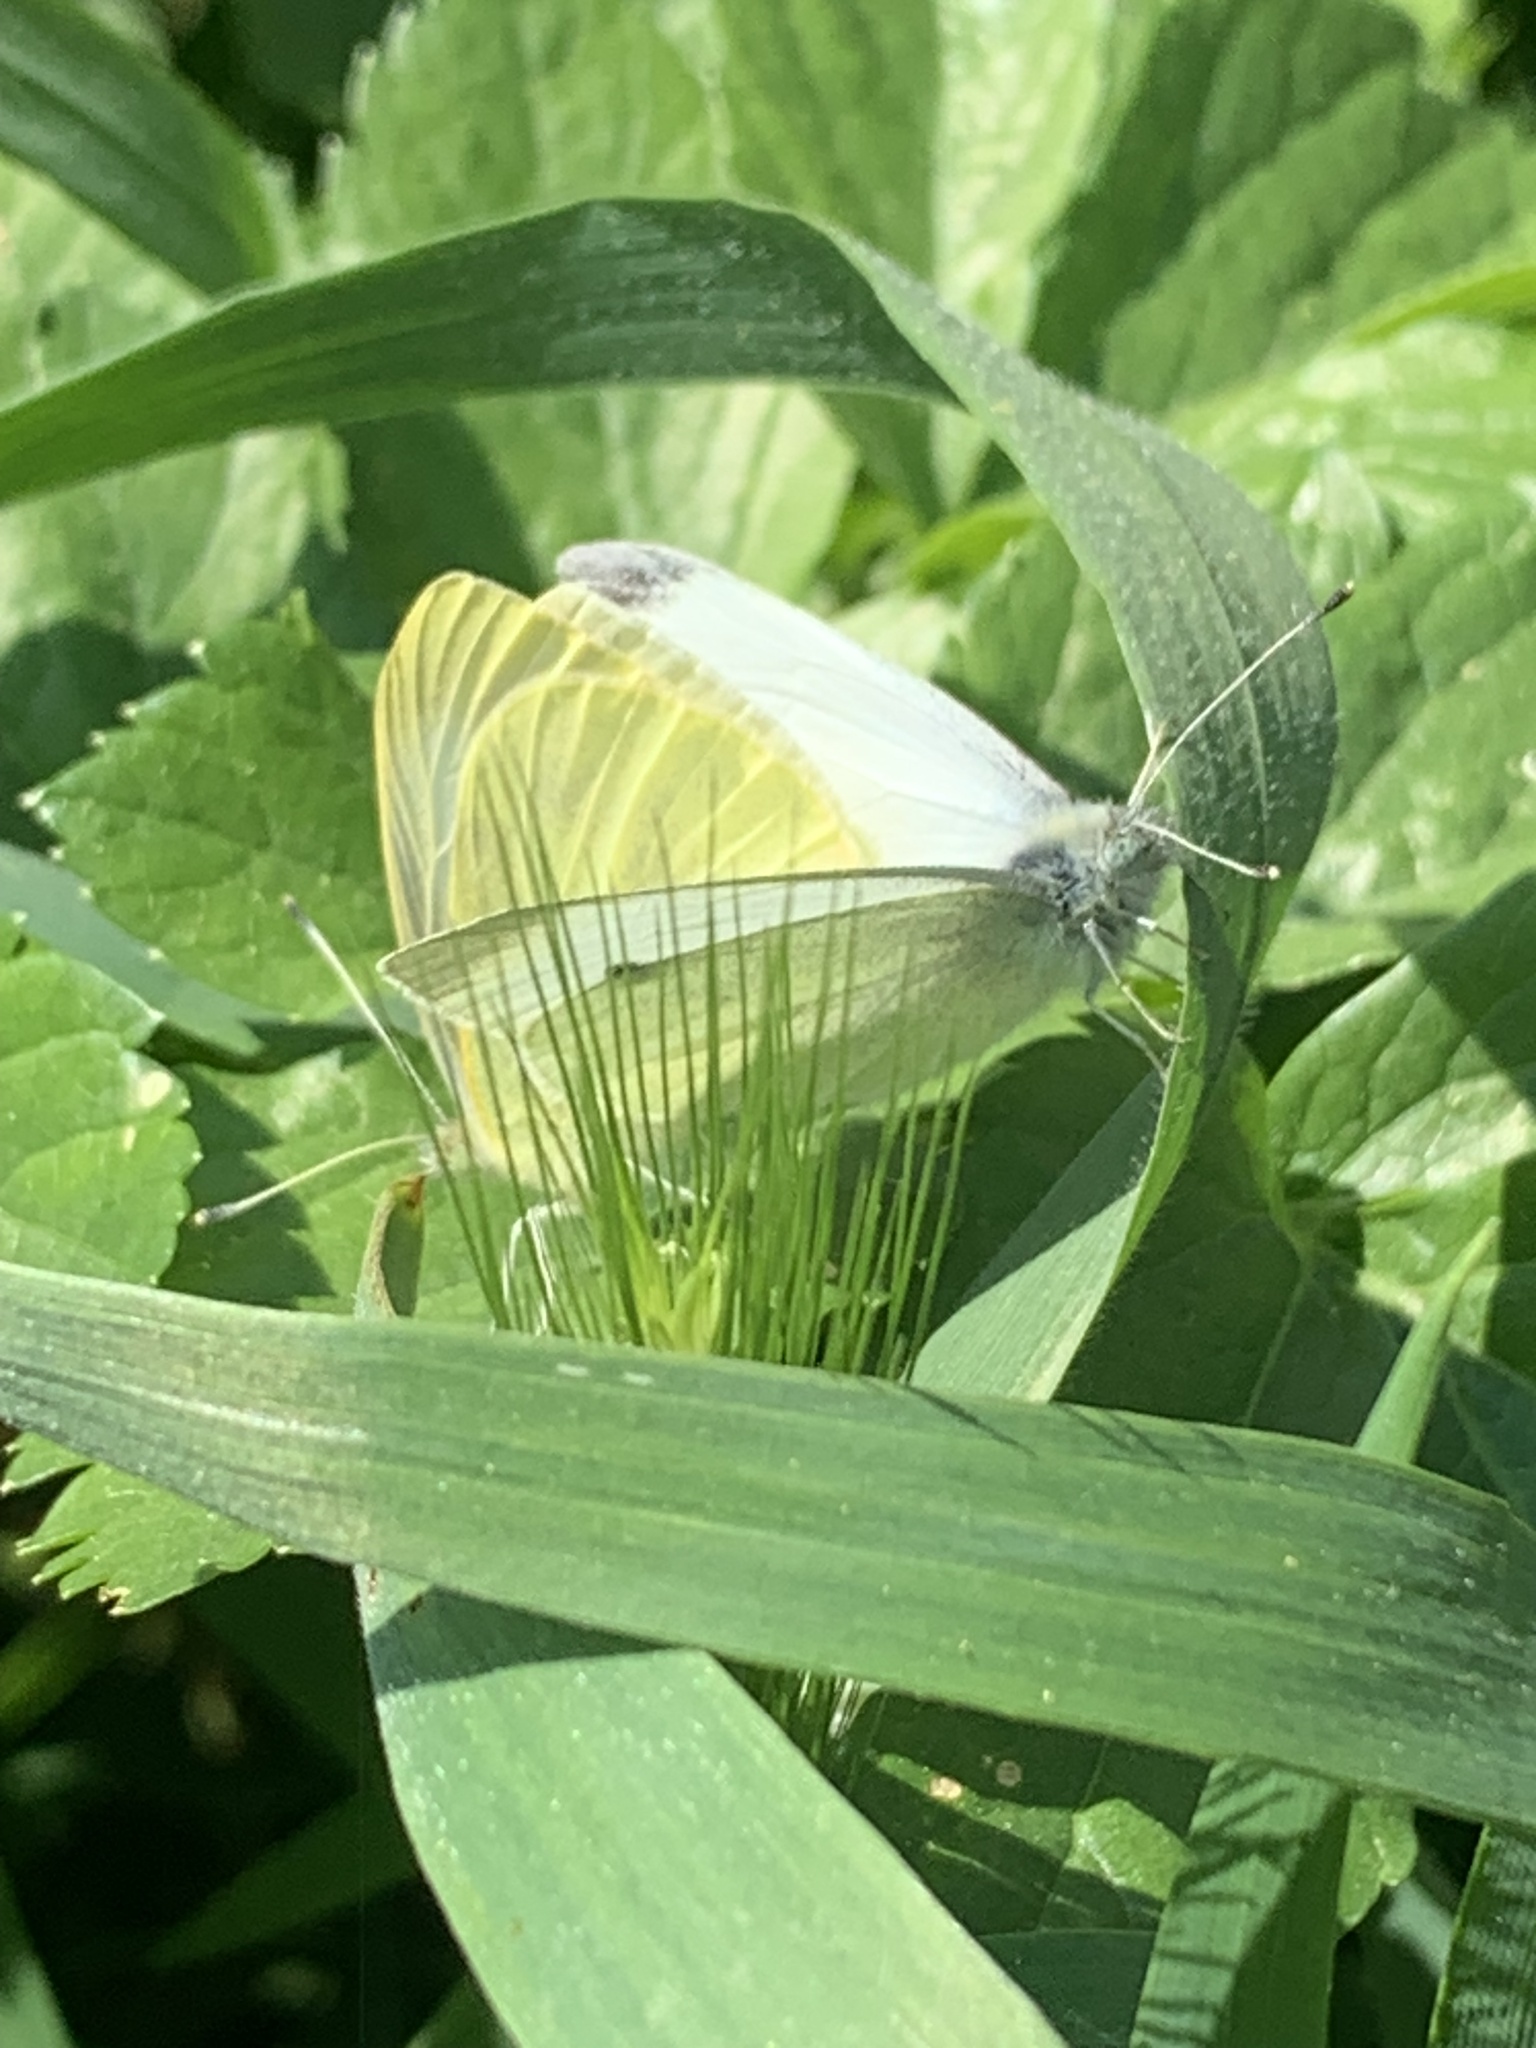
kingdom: Animalia
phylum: Arthropoda
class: Insecta
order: Lepidoptera
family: Pieridae
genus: Pieris
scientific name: Pieris rapae
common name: Small white
